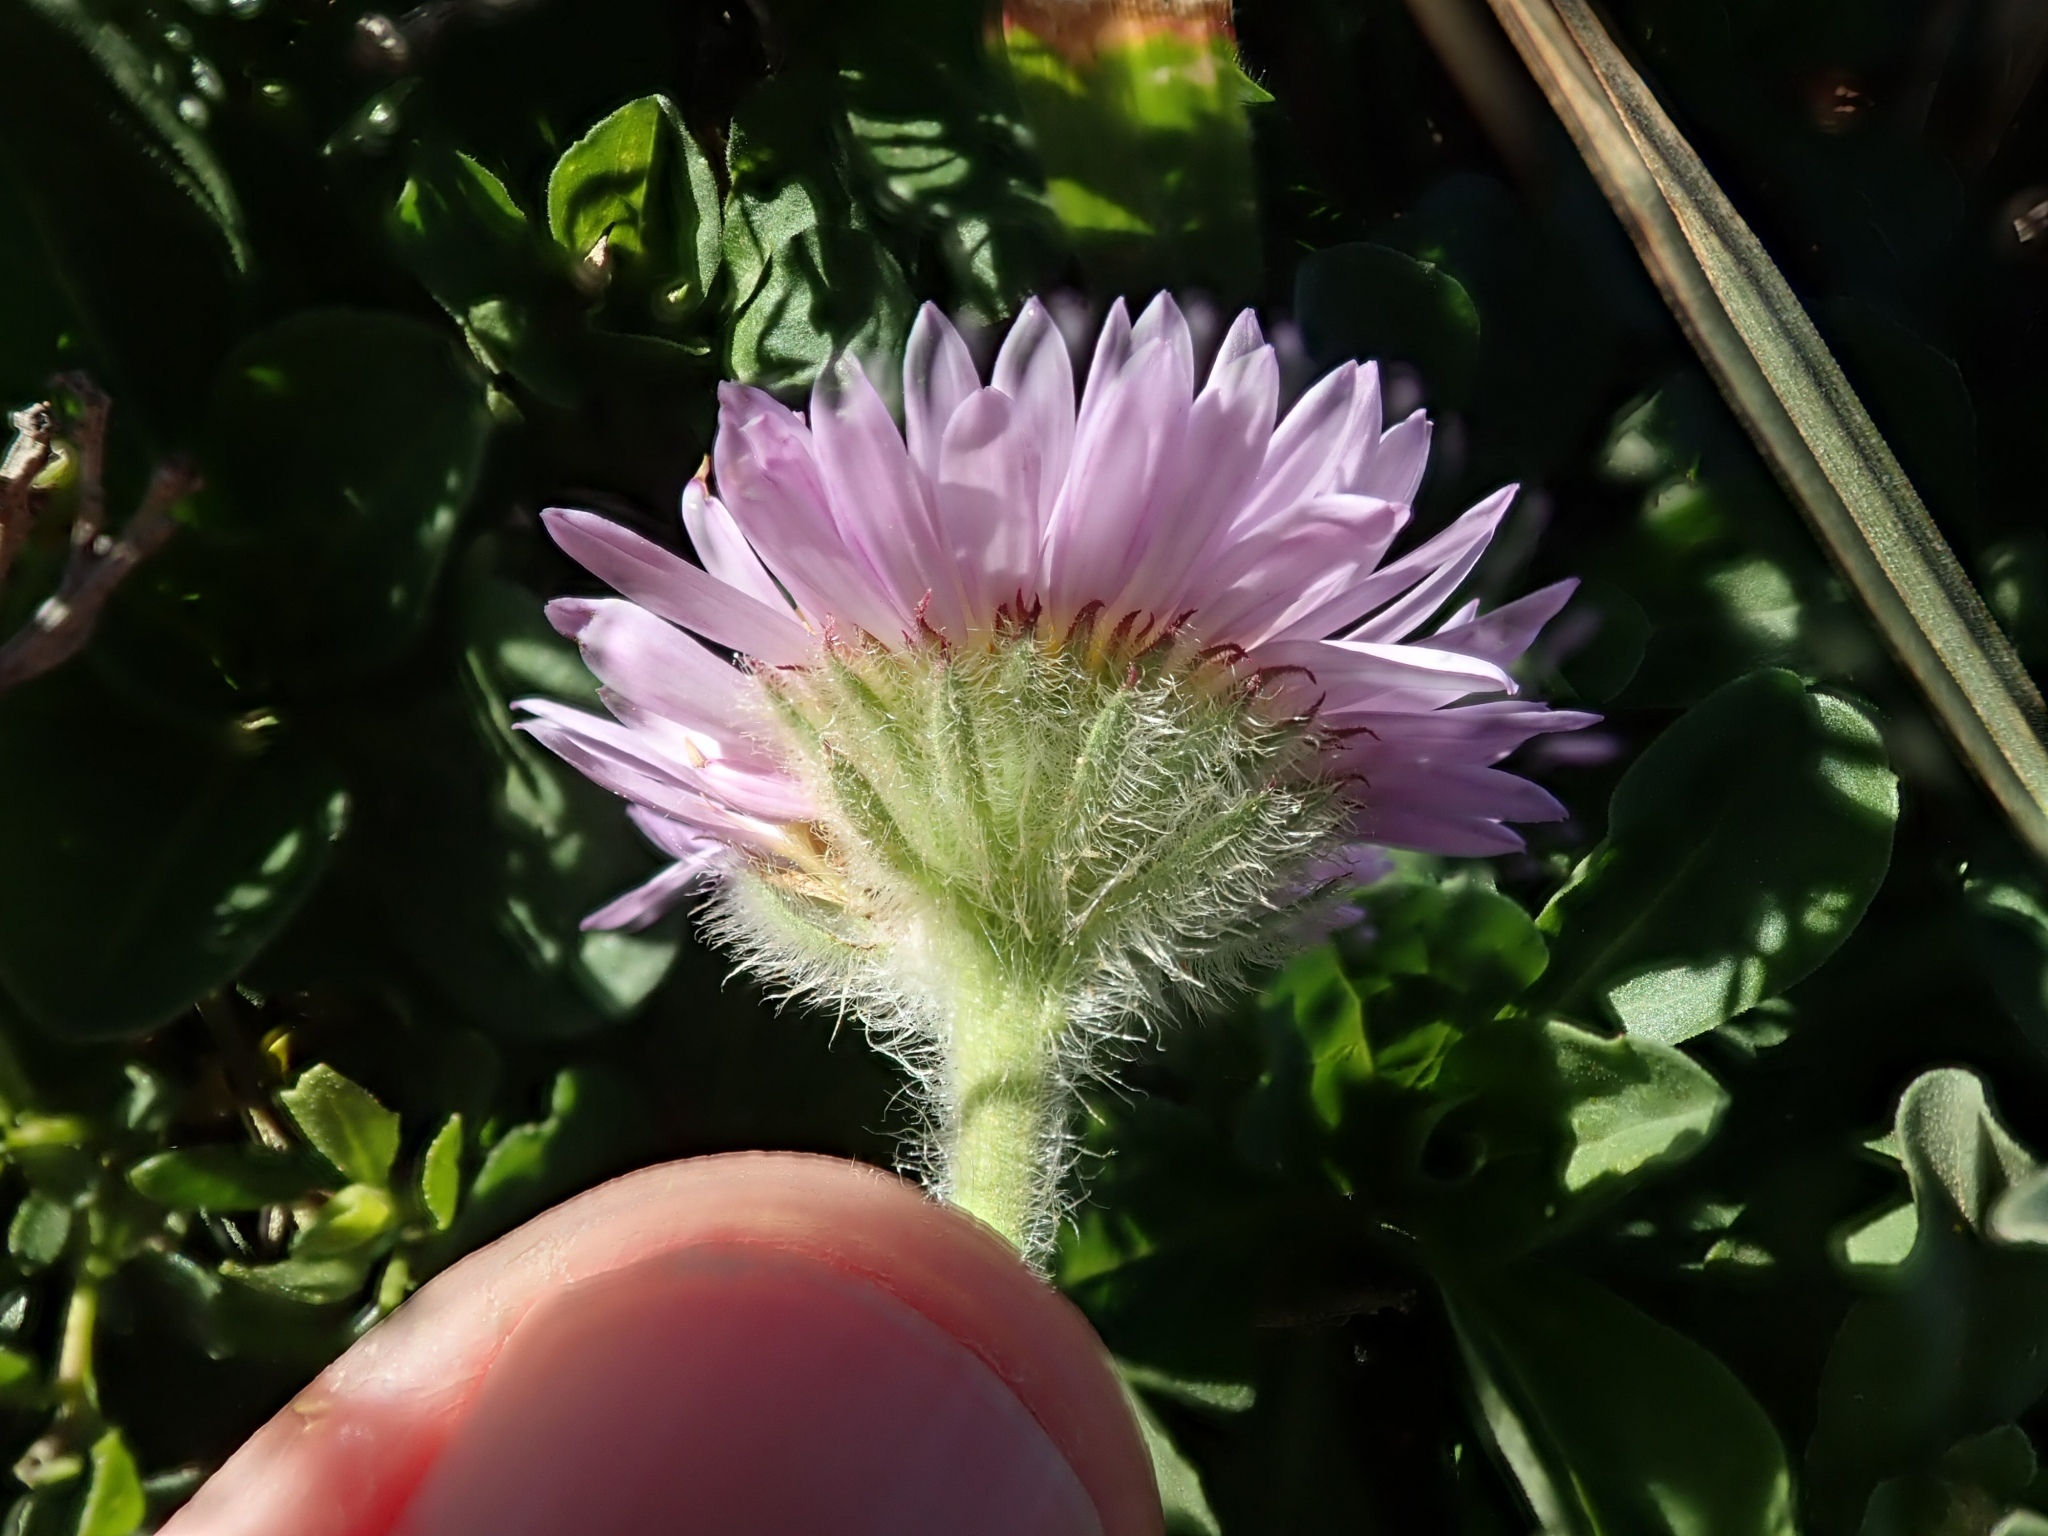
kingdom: Plantae
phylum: Tracheophyta
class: Magnoliopsida
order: Asterales
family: Asteraceae
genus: Erigeron
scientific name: Erigeron glaucus
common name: Seaside daisy
